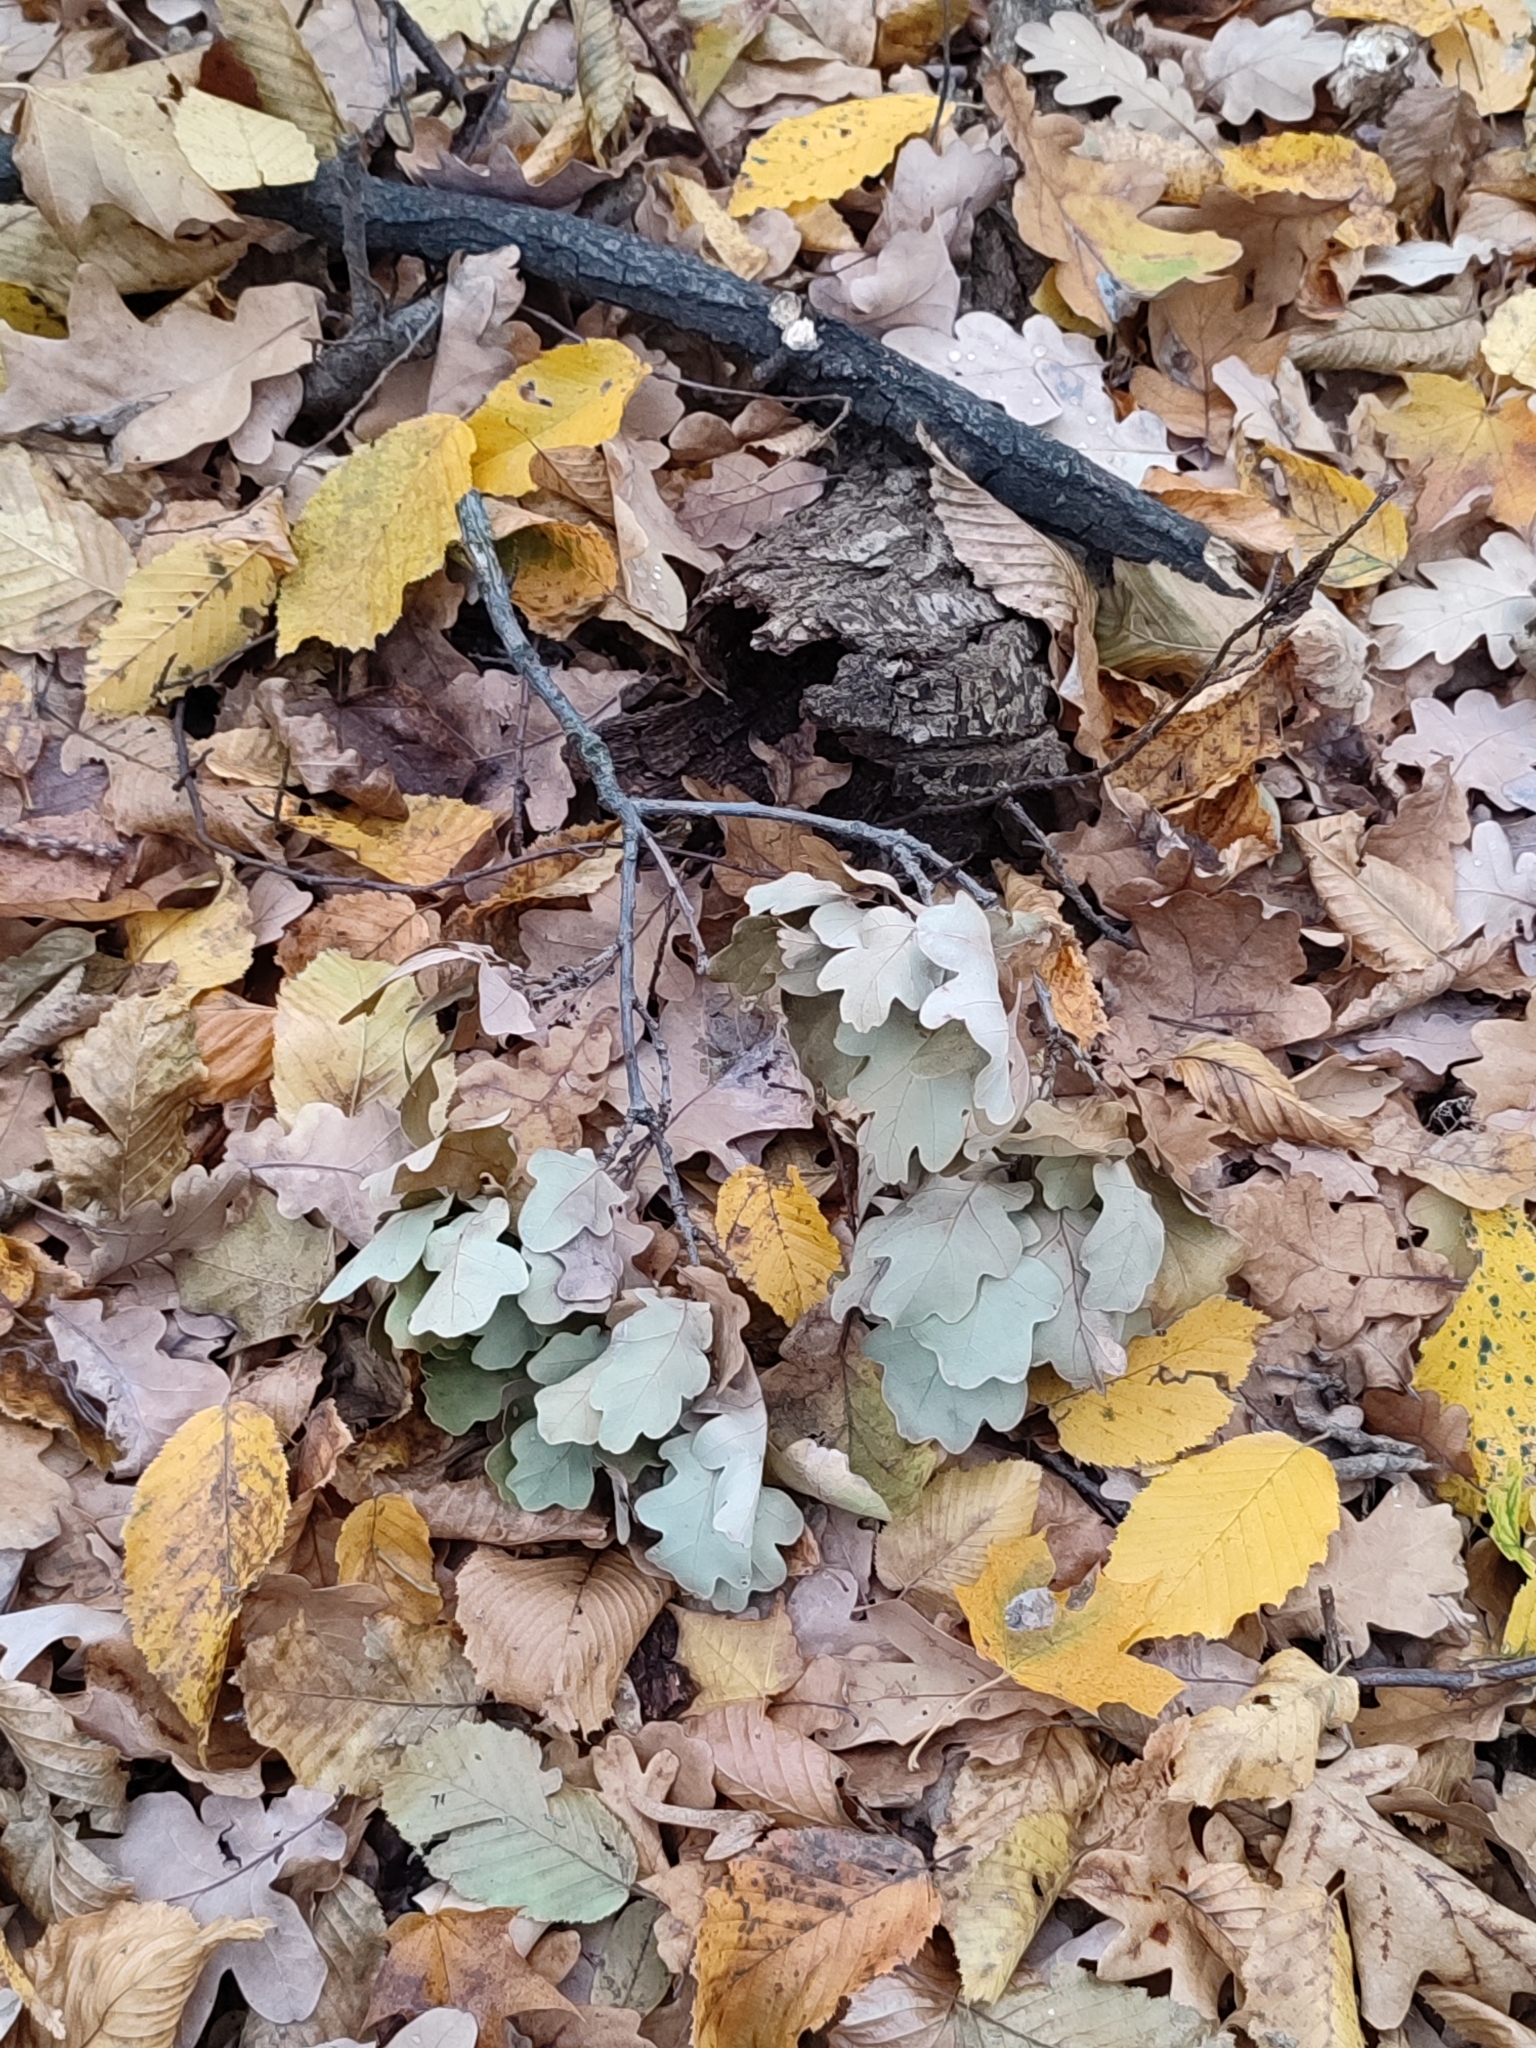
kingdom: Plantae
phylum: Tracheophyta
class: Magnoliopsida
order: Fagales
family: Fagaceae
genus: Quercus
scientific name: Quercus robur
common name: Pedunculate oak
